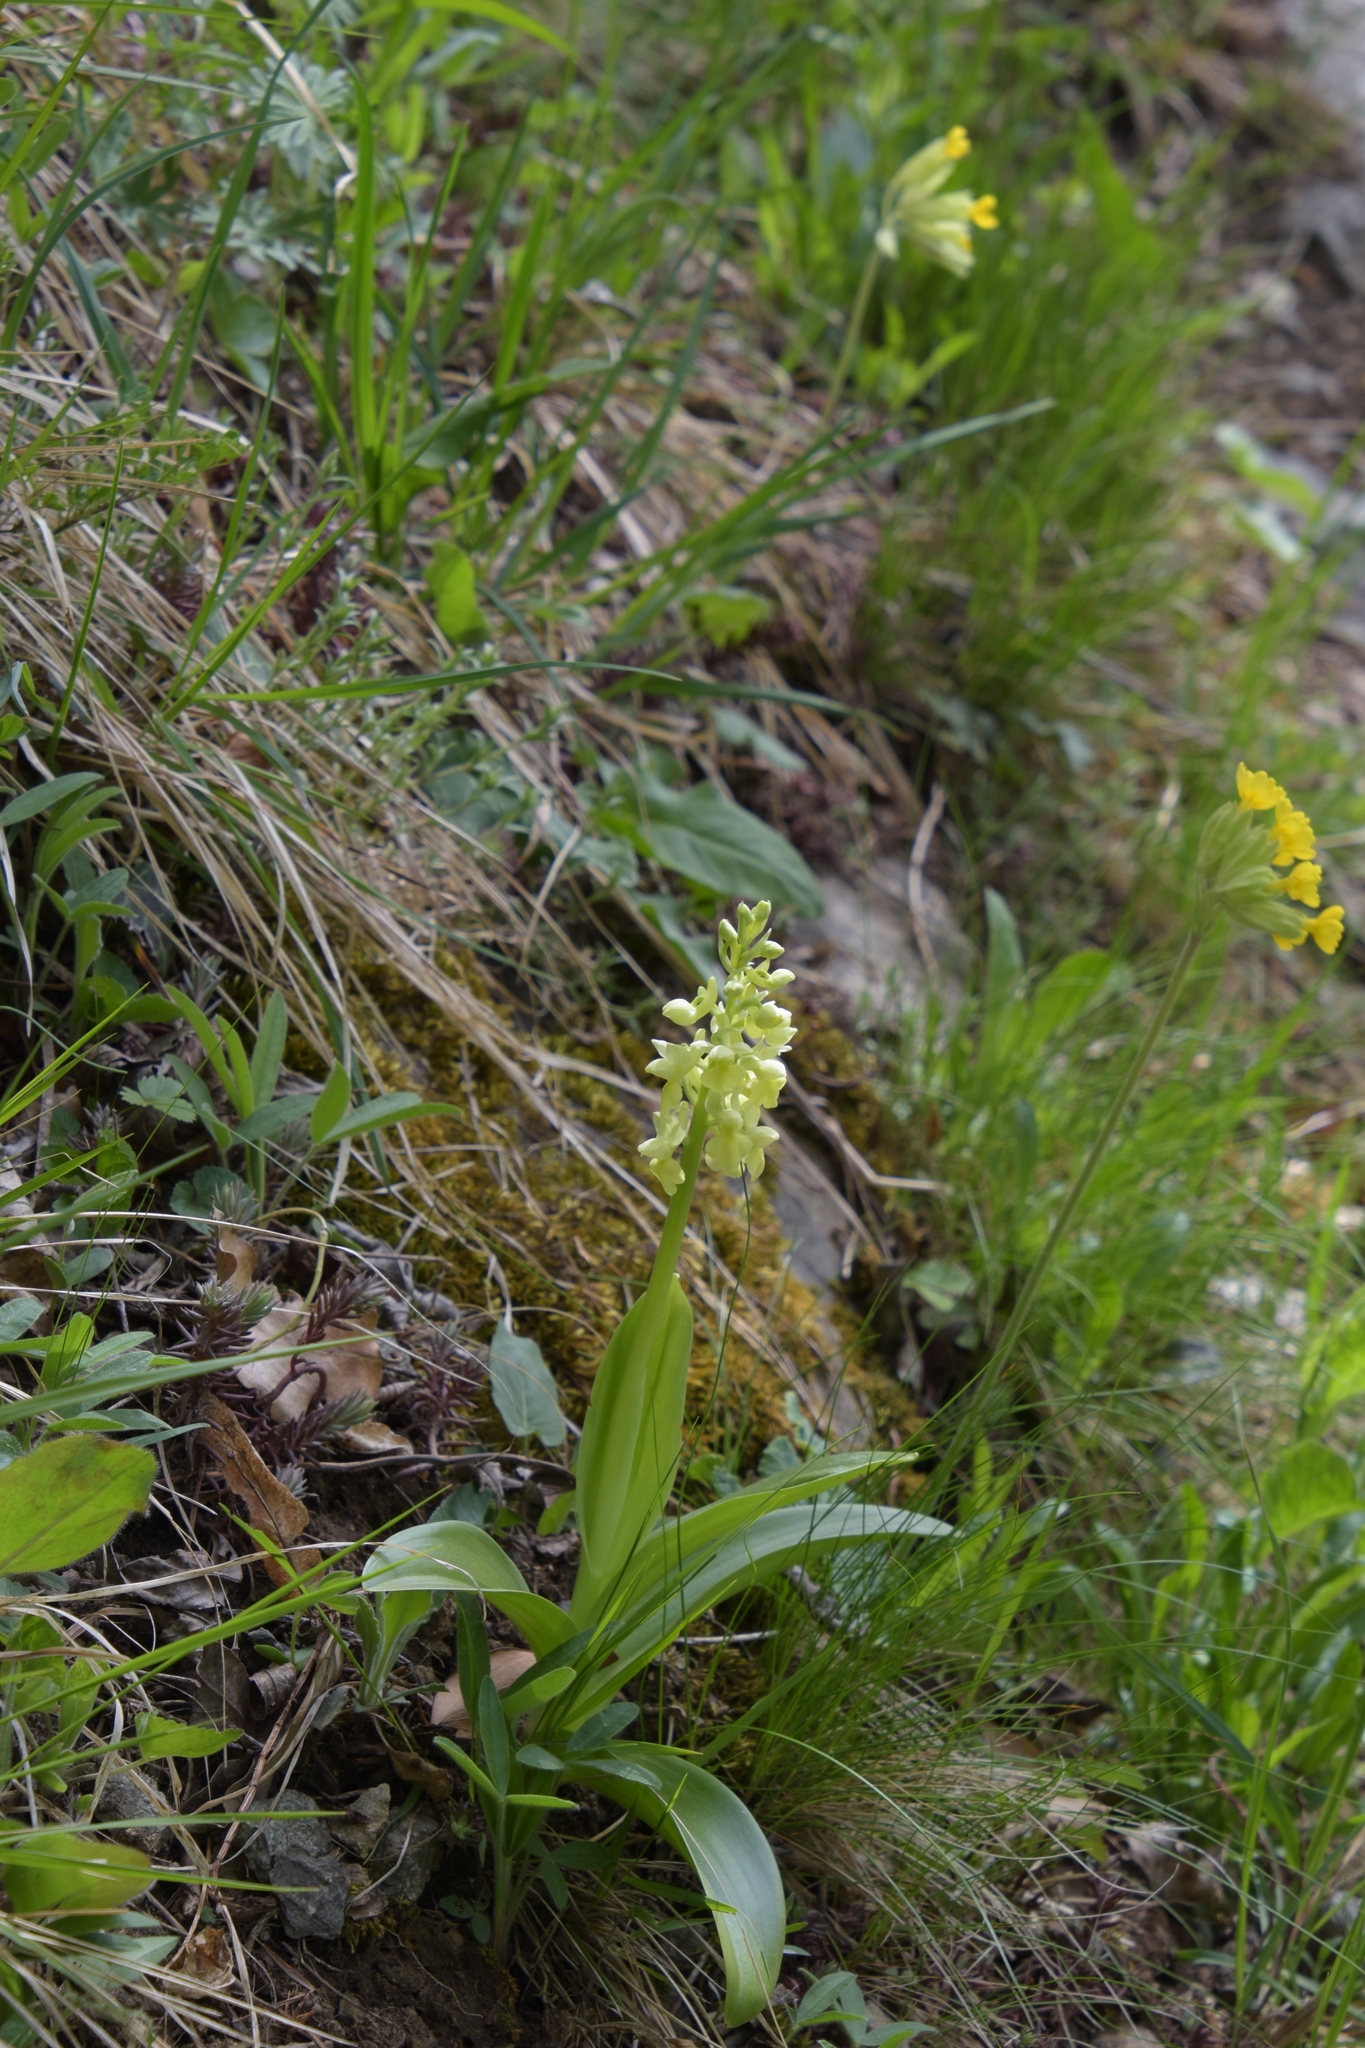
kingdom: Plantae
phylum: Tracheophyta
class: Liliopsida
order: Asparagales
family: Orchidaceae
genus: Orchis
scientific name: Orchis pallens
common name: Pale-flowered orchid
